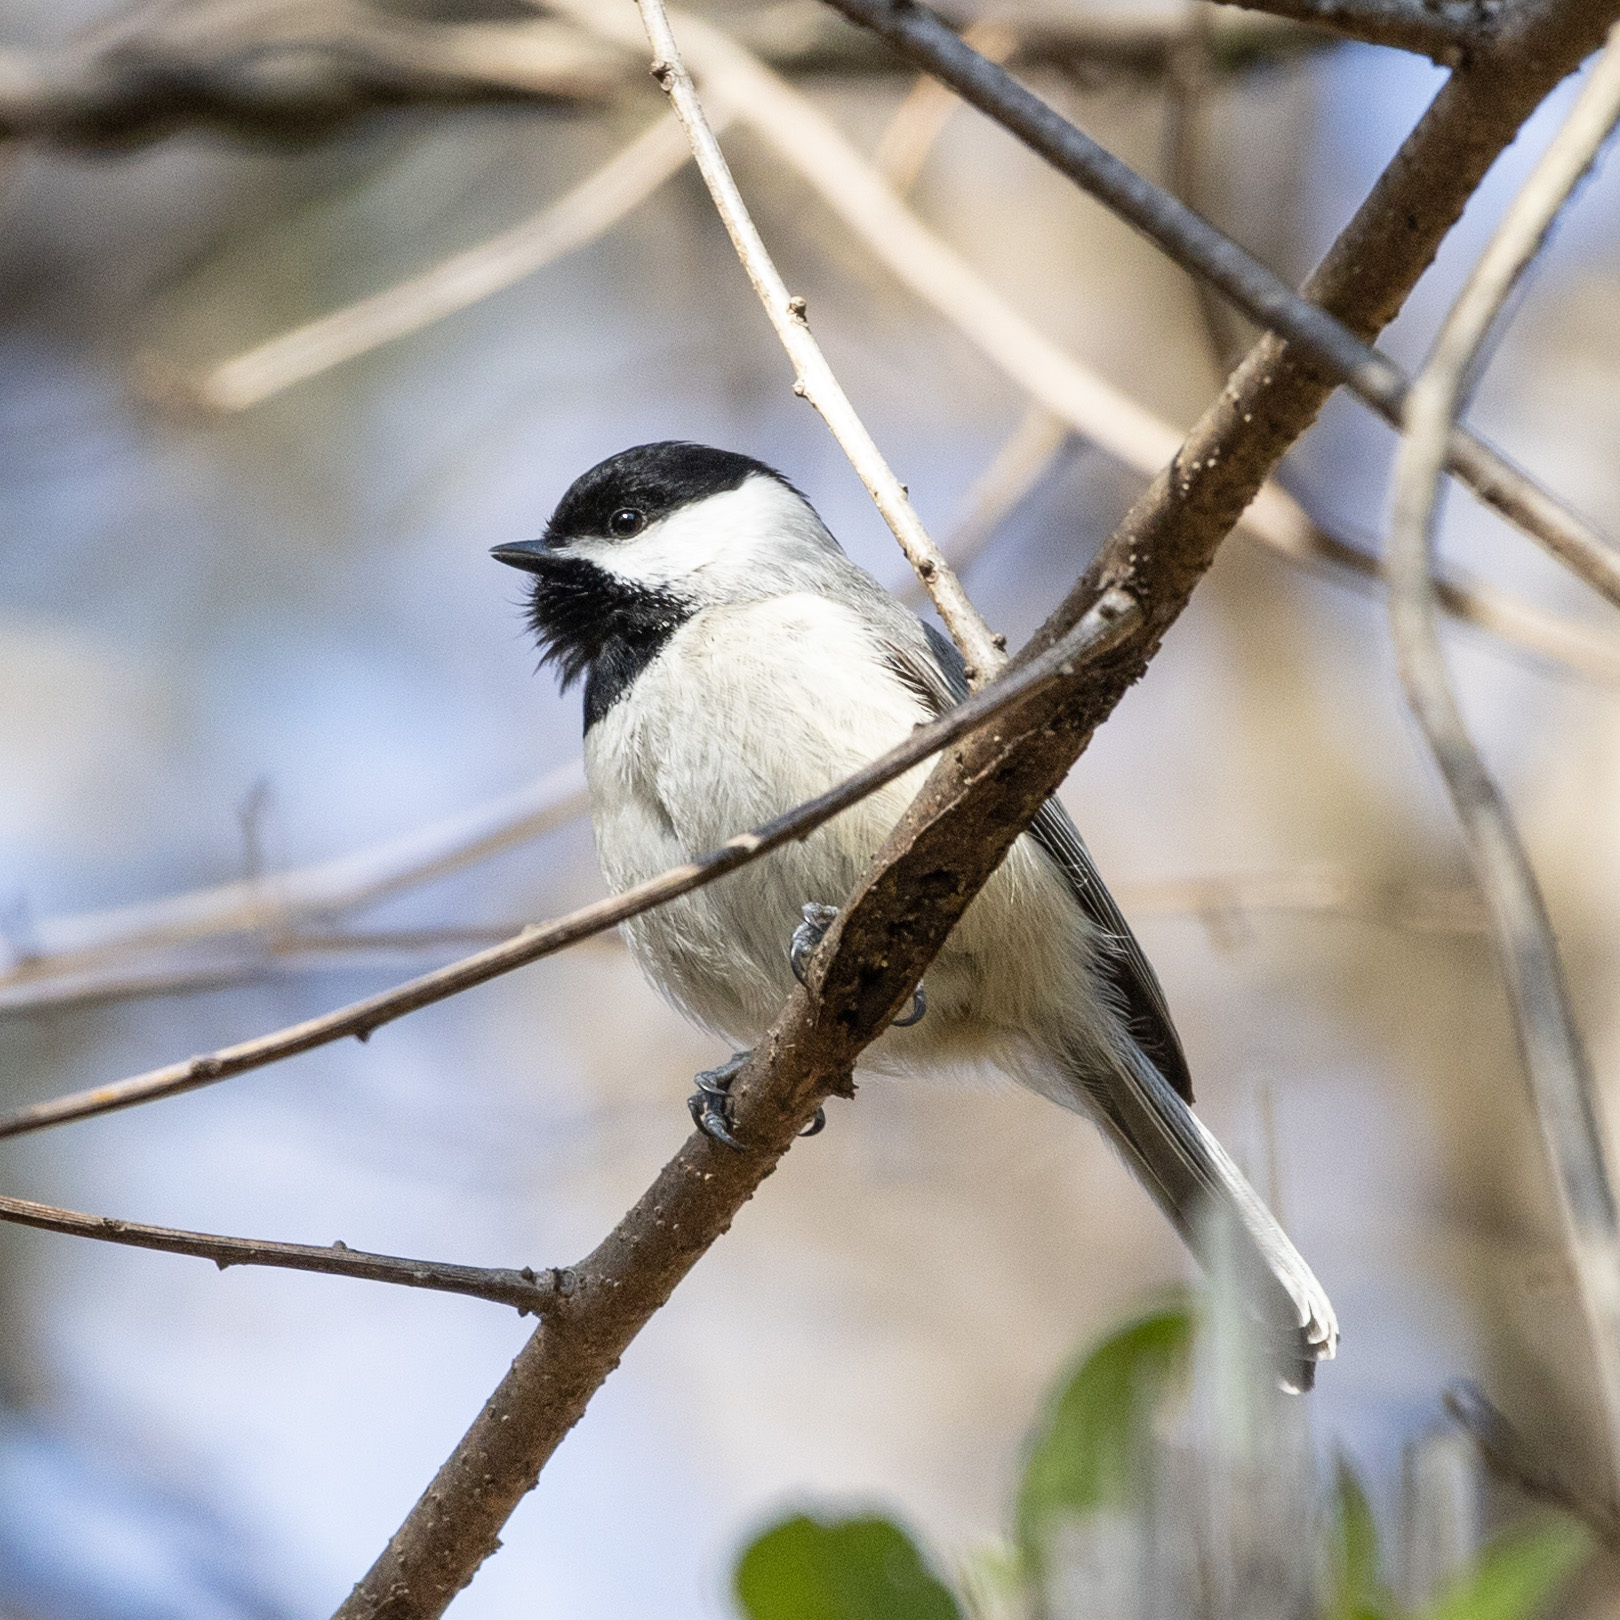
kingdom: Animalia
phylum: Chordata
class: Aves
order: Passeriformes
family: Paridae
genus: Poecile
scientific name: Poecile carolinensis
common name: Carolina chickadee
